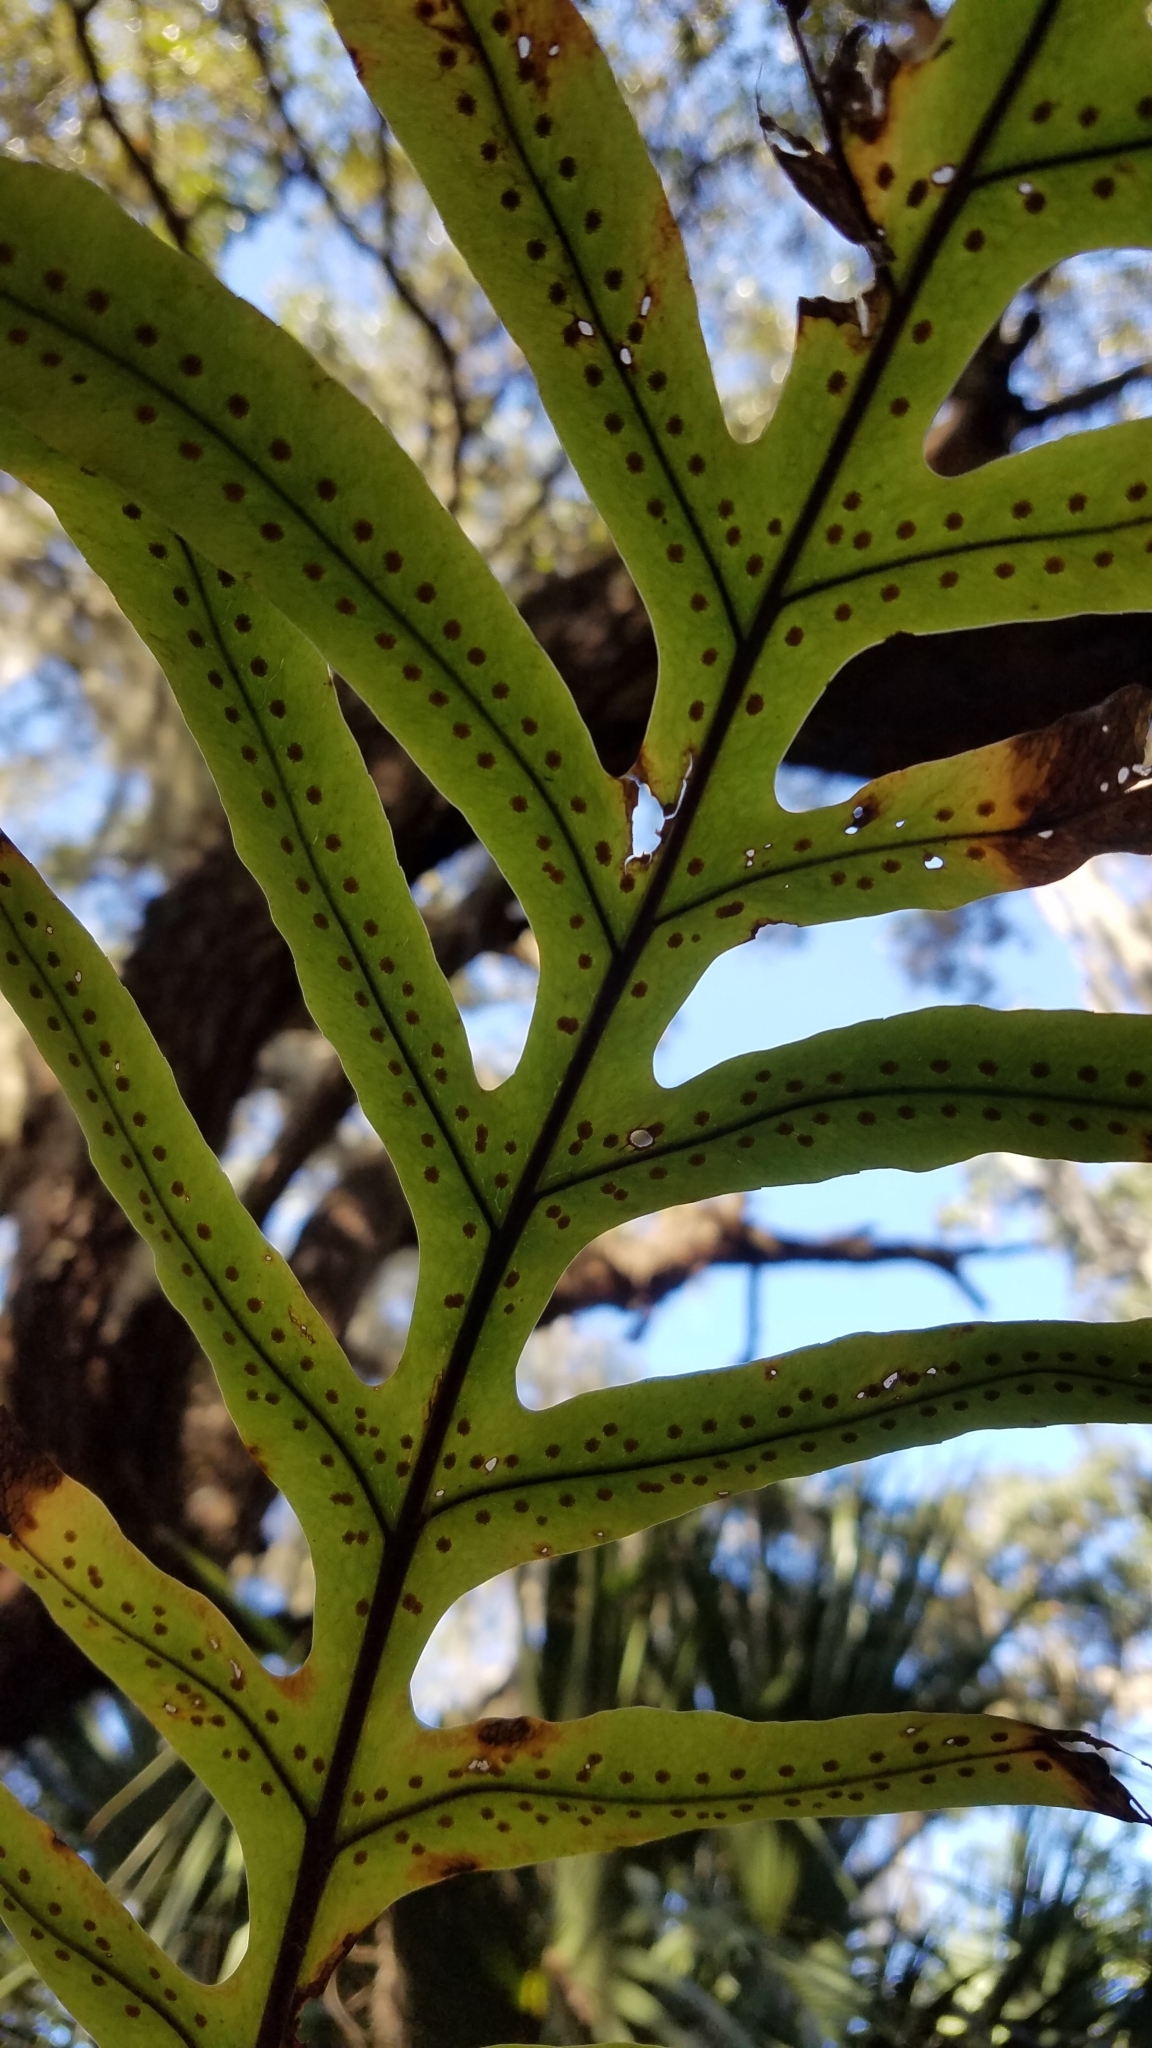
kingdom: Plantae
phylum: Tracheophyta
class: Polypodiopsida
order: Polypodiales
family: Polypodiaceae
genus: Phlebodium
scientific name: Phlebodium aureum
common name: Gold-foot fern
